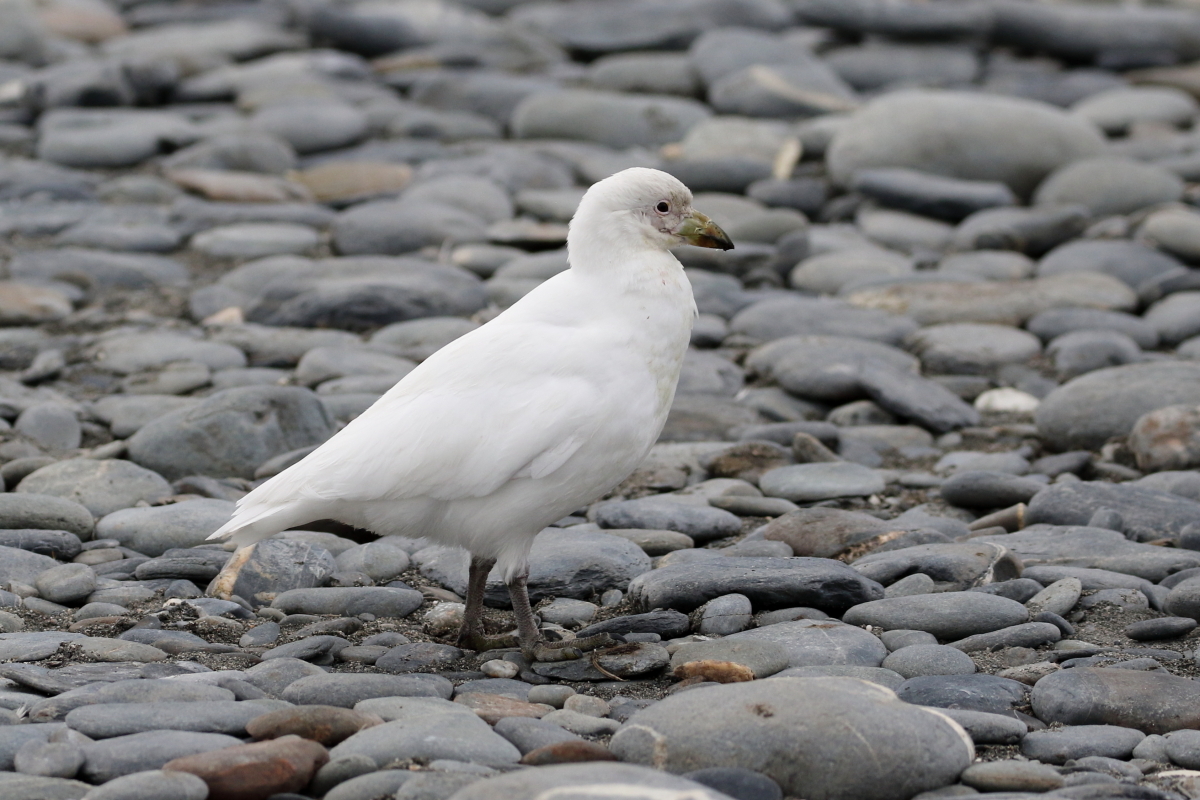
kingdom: Animalia
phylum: Chordata
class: Aves
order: Charadriiformes
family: Chionidae
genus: Chionis
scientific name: Chionis albus
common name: Snowy sheathbill
